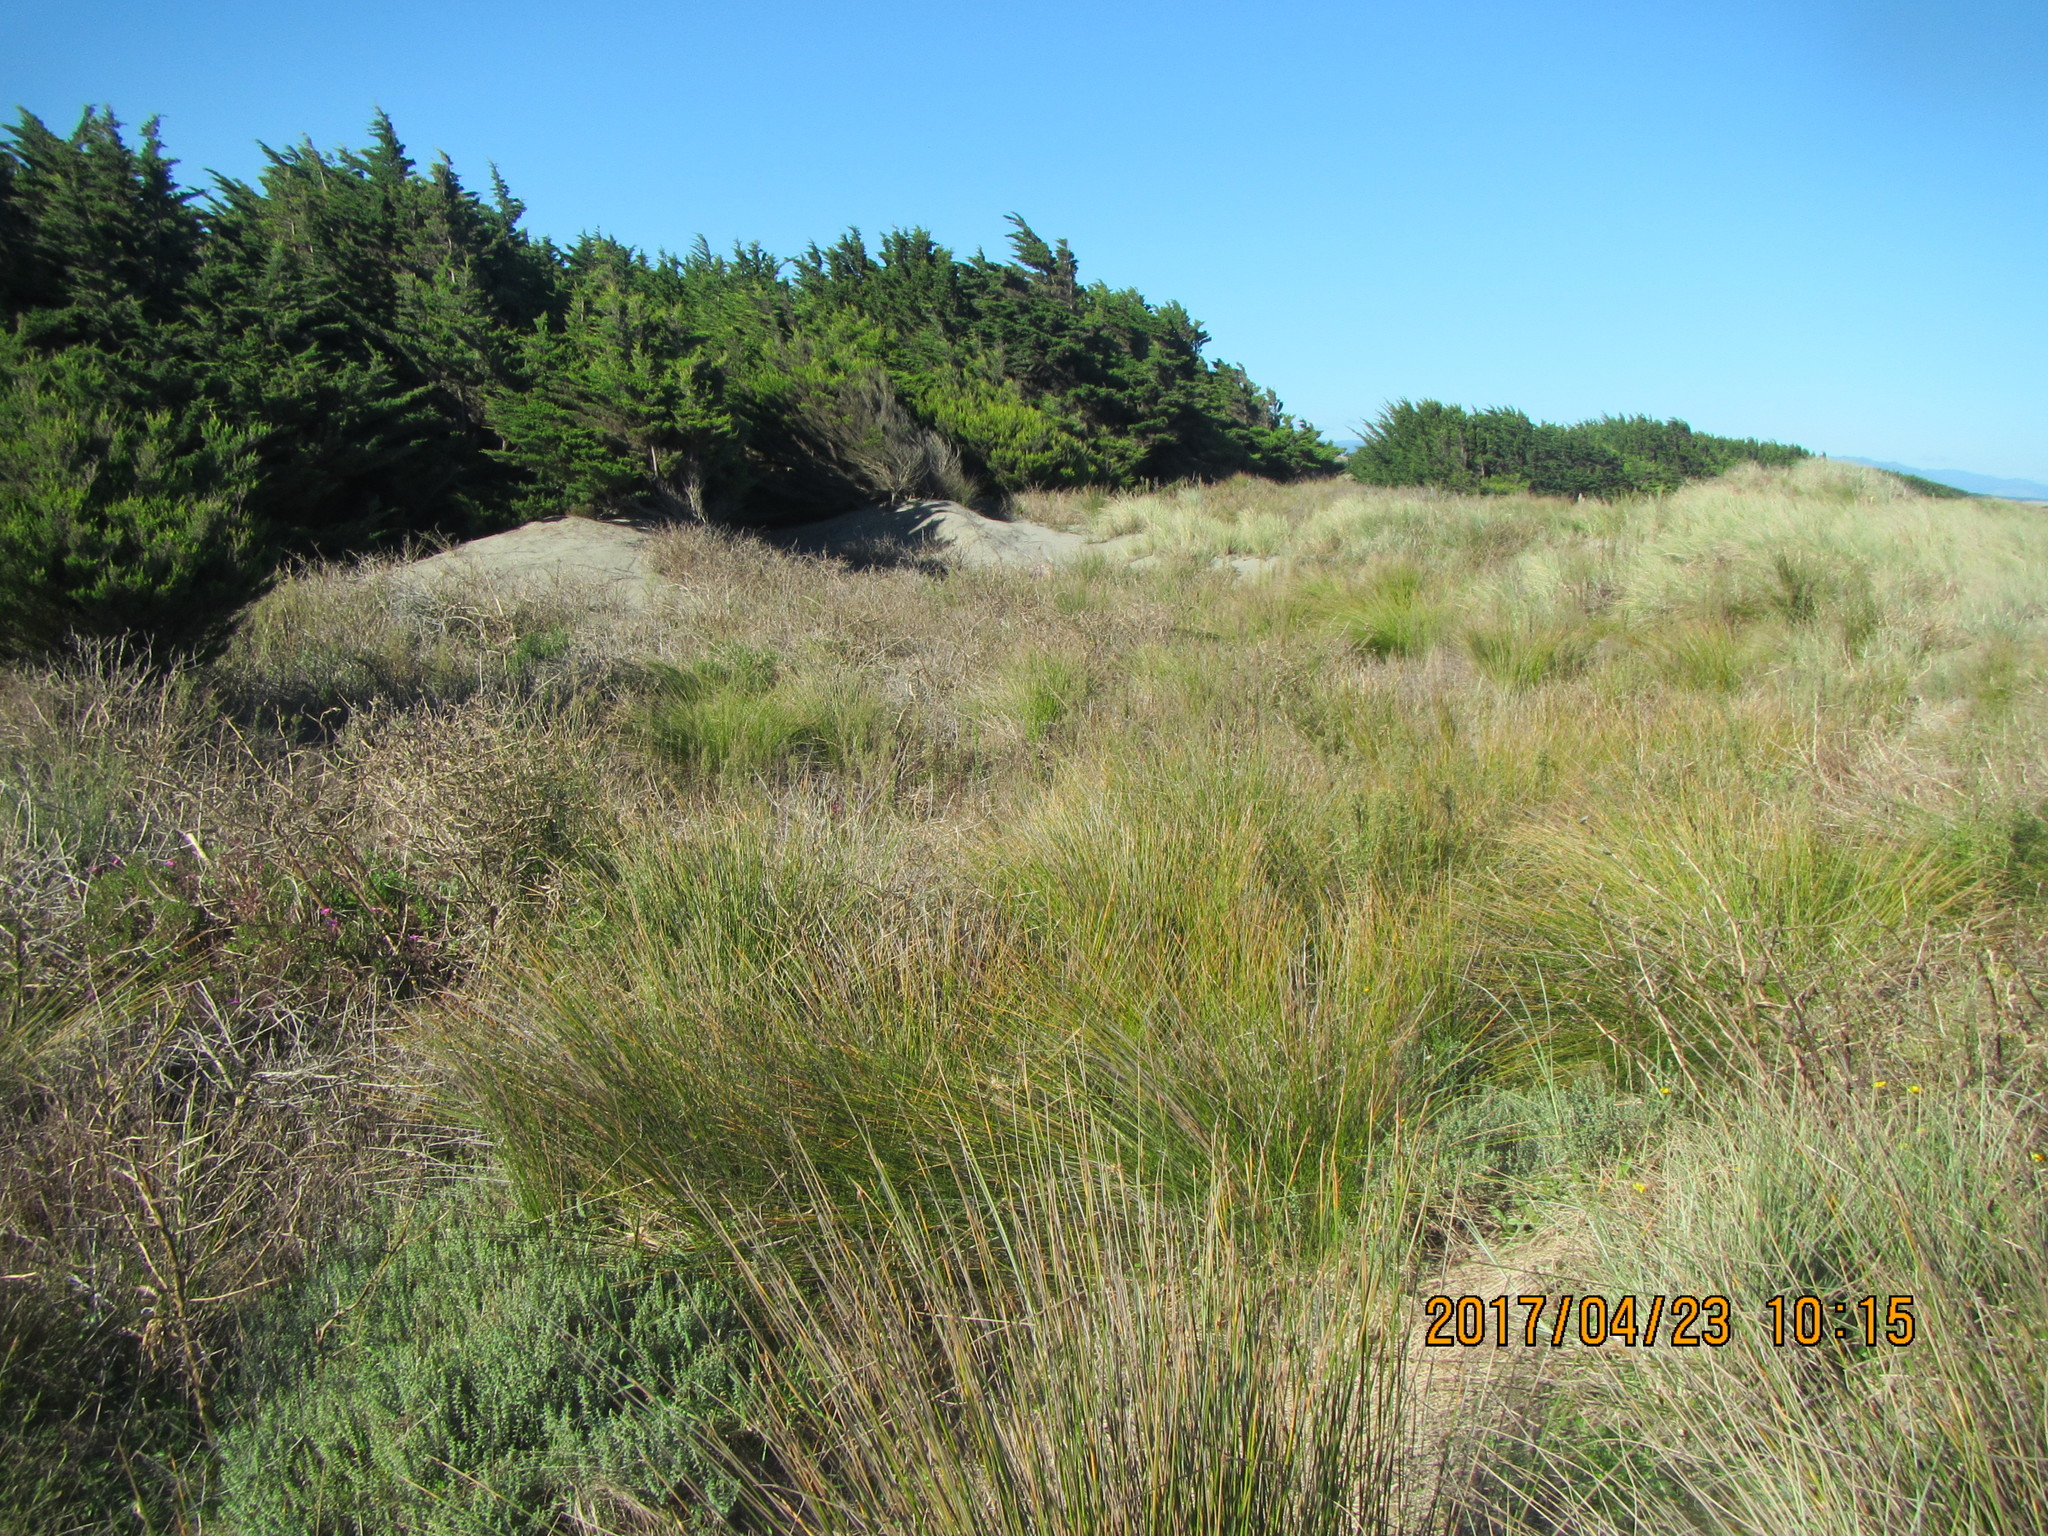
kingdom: Plantae
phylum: Tracheophyta
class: Liliopsida
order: Poales
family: Cyperaceae
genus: Ficinia
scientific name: Ficinia nodosa
